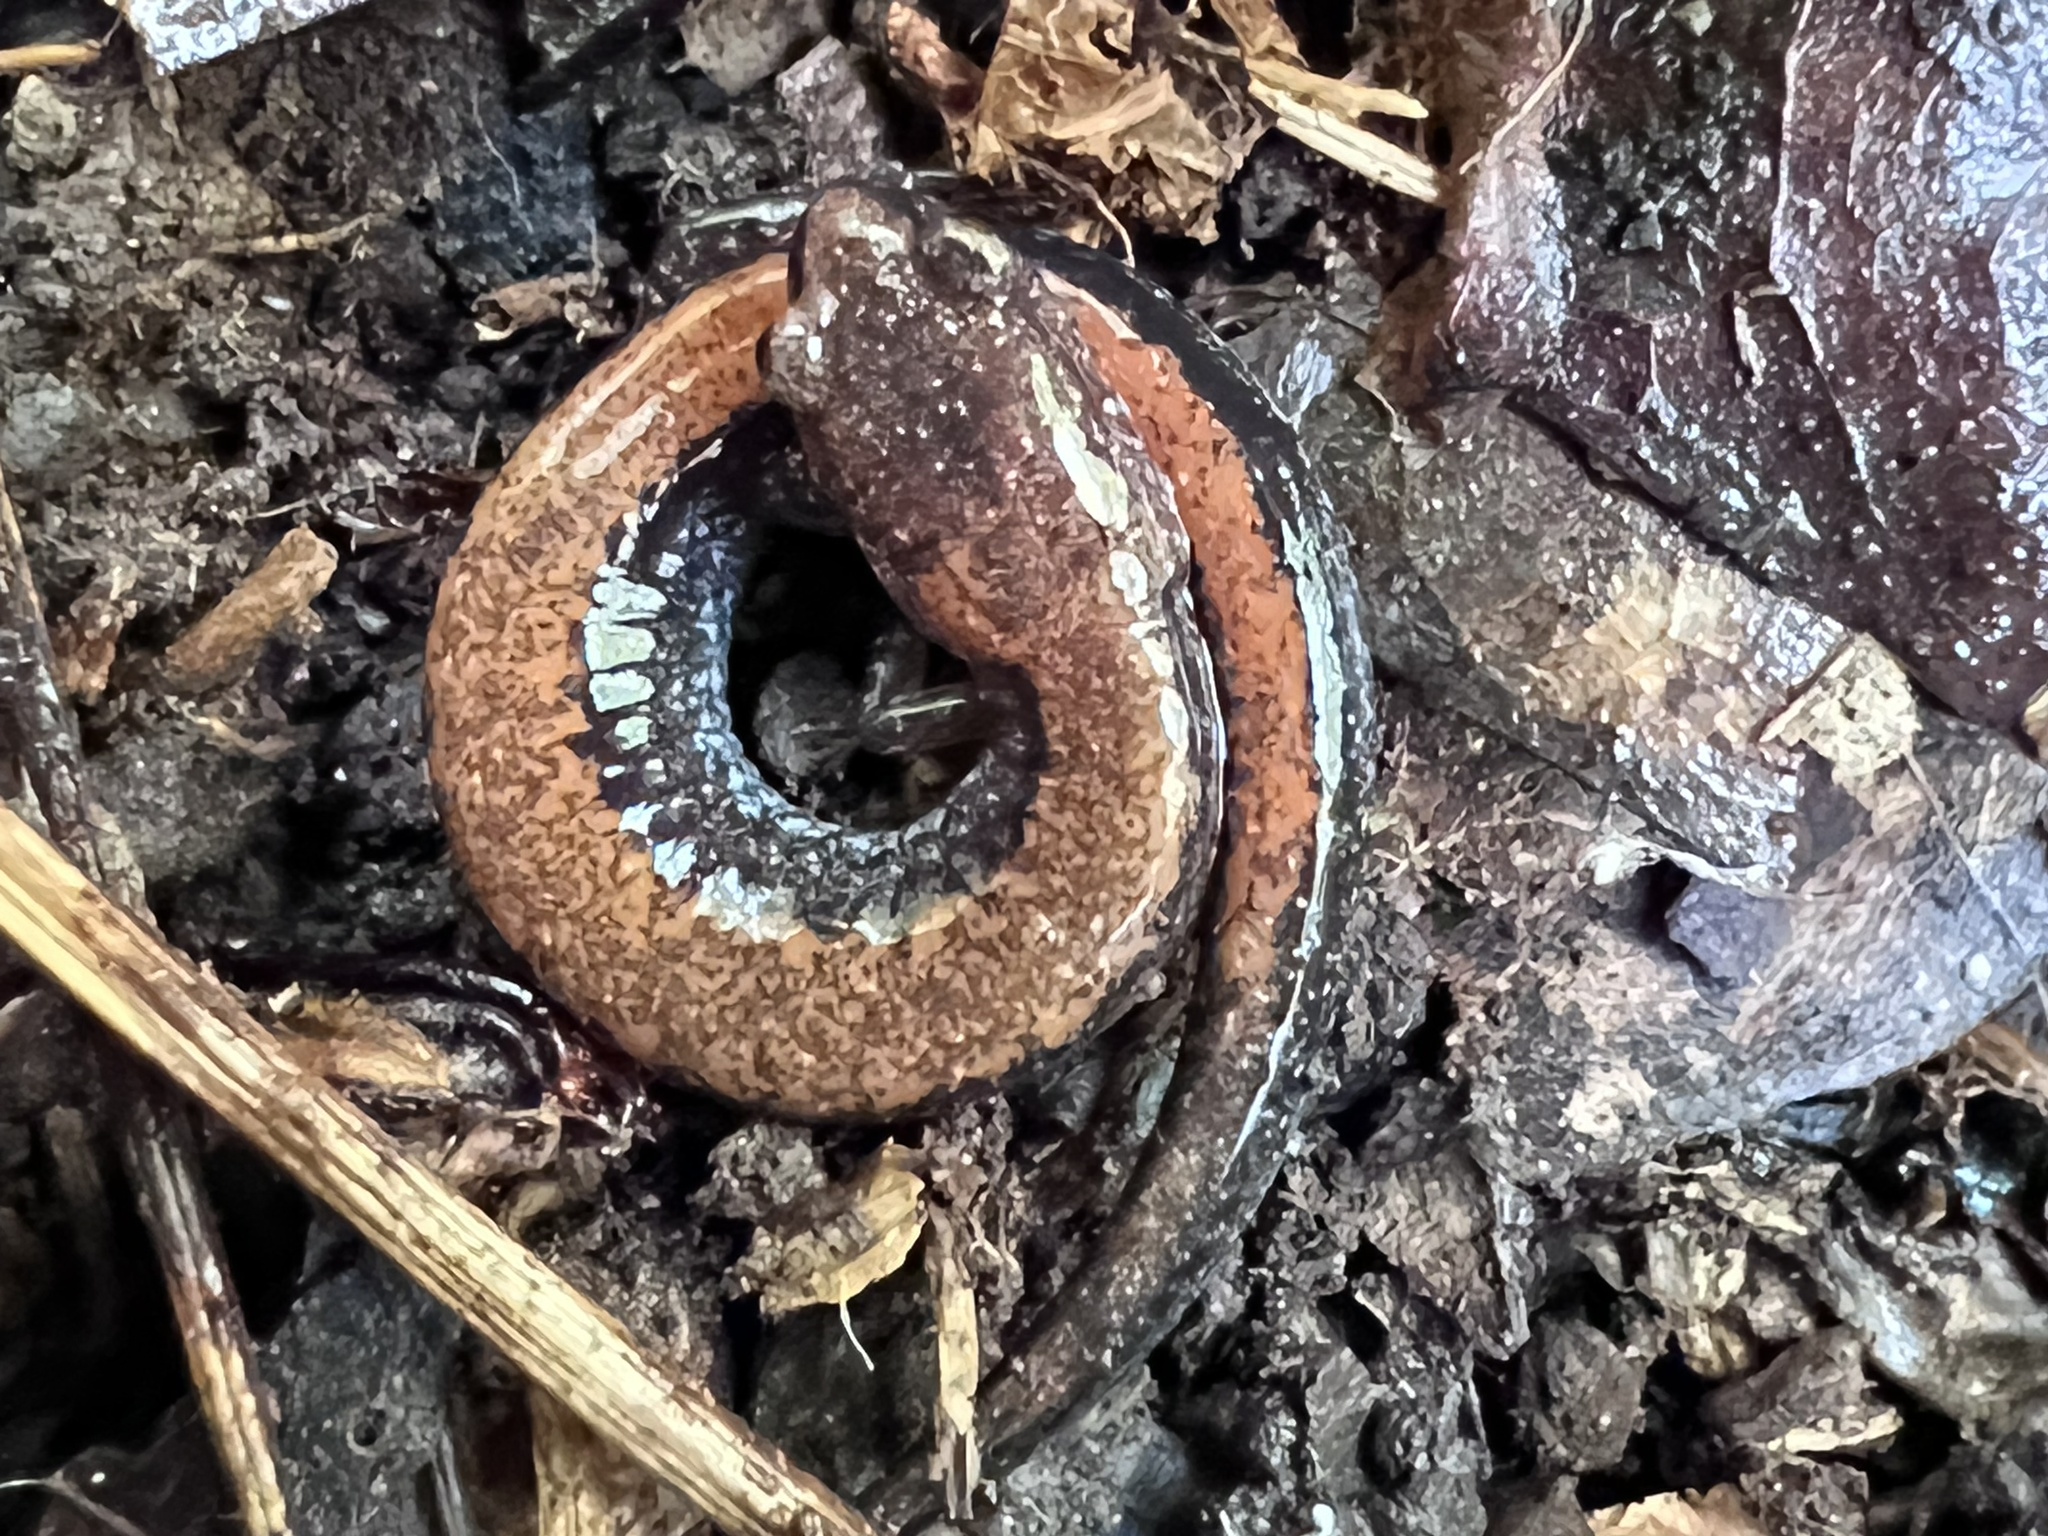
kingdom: Animalia
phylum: Chordata
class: Amphibia
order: Caudata
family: Plethodontidae
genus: Plethodon
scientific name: Plethodon cinereus
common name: Redback salamander
